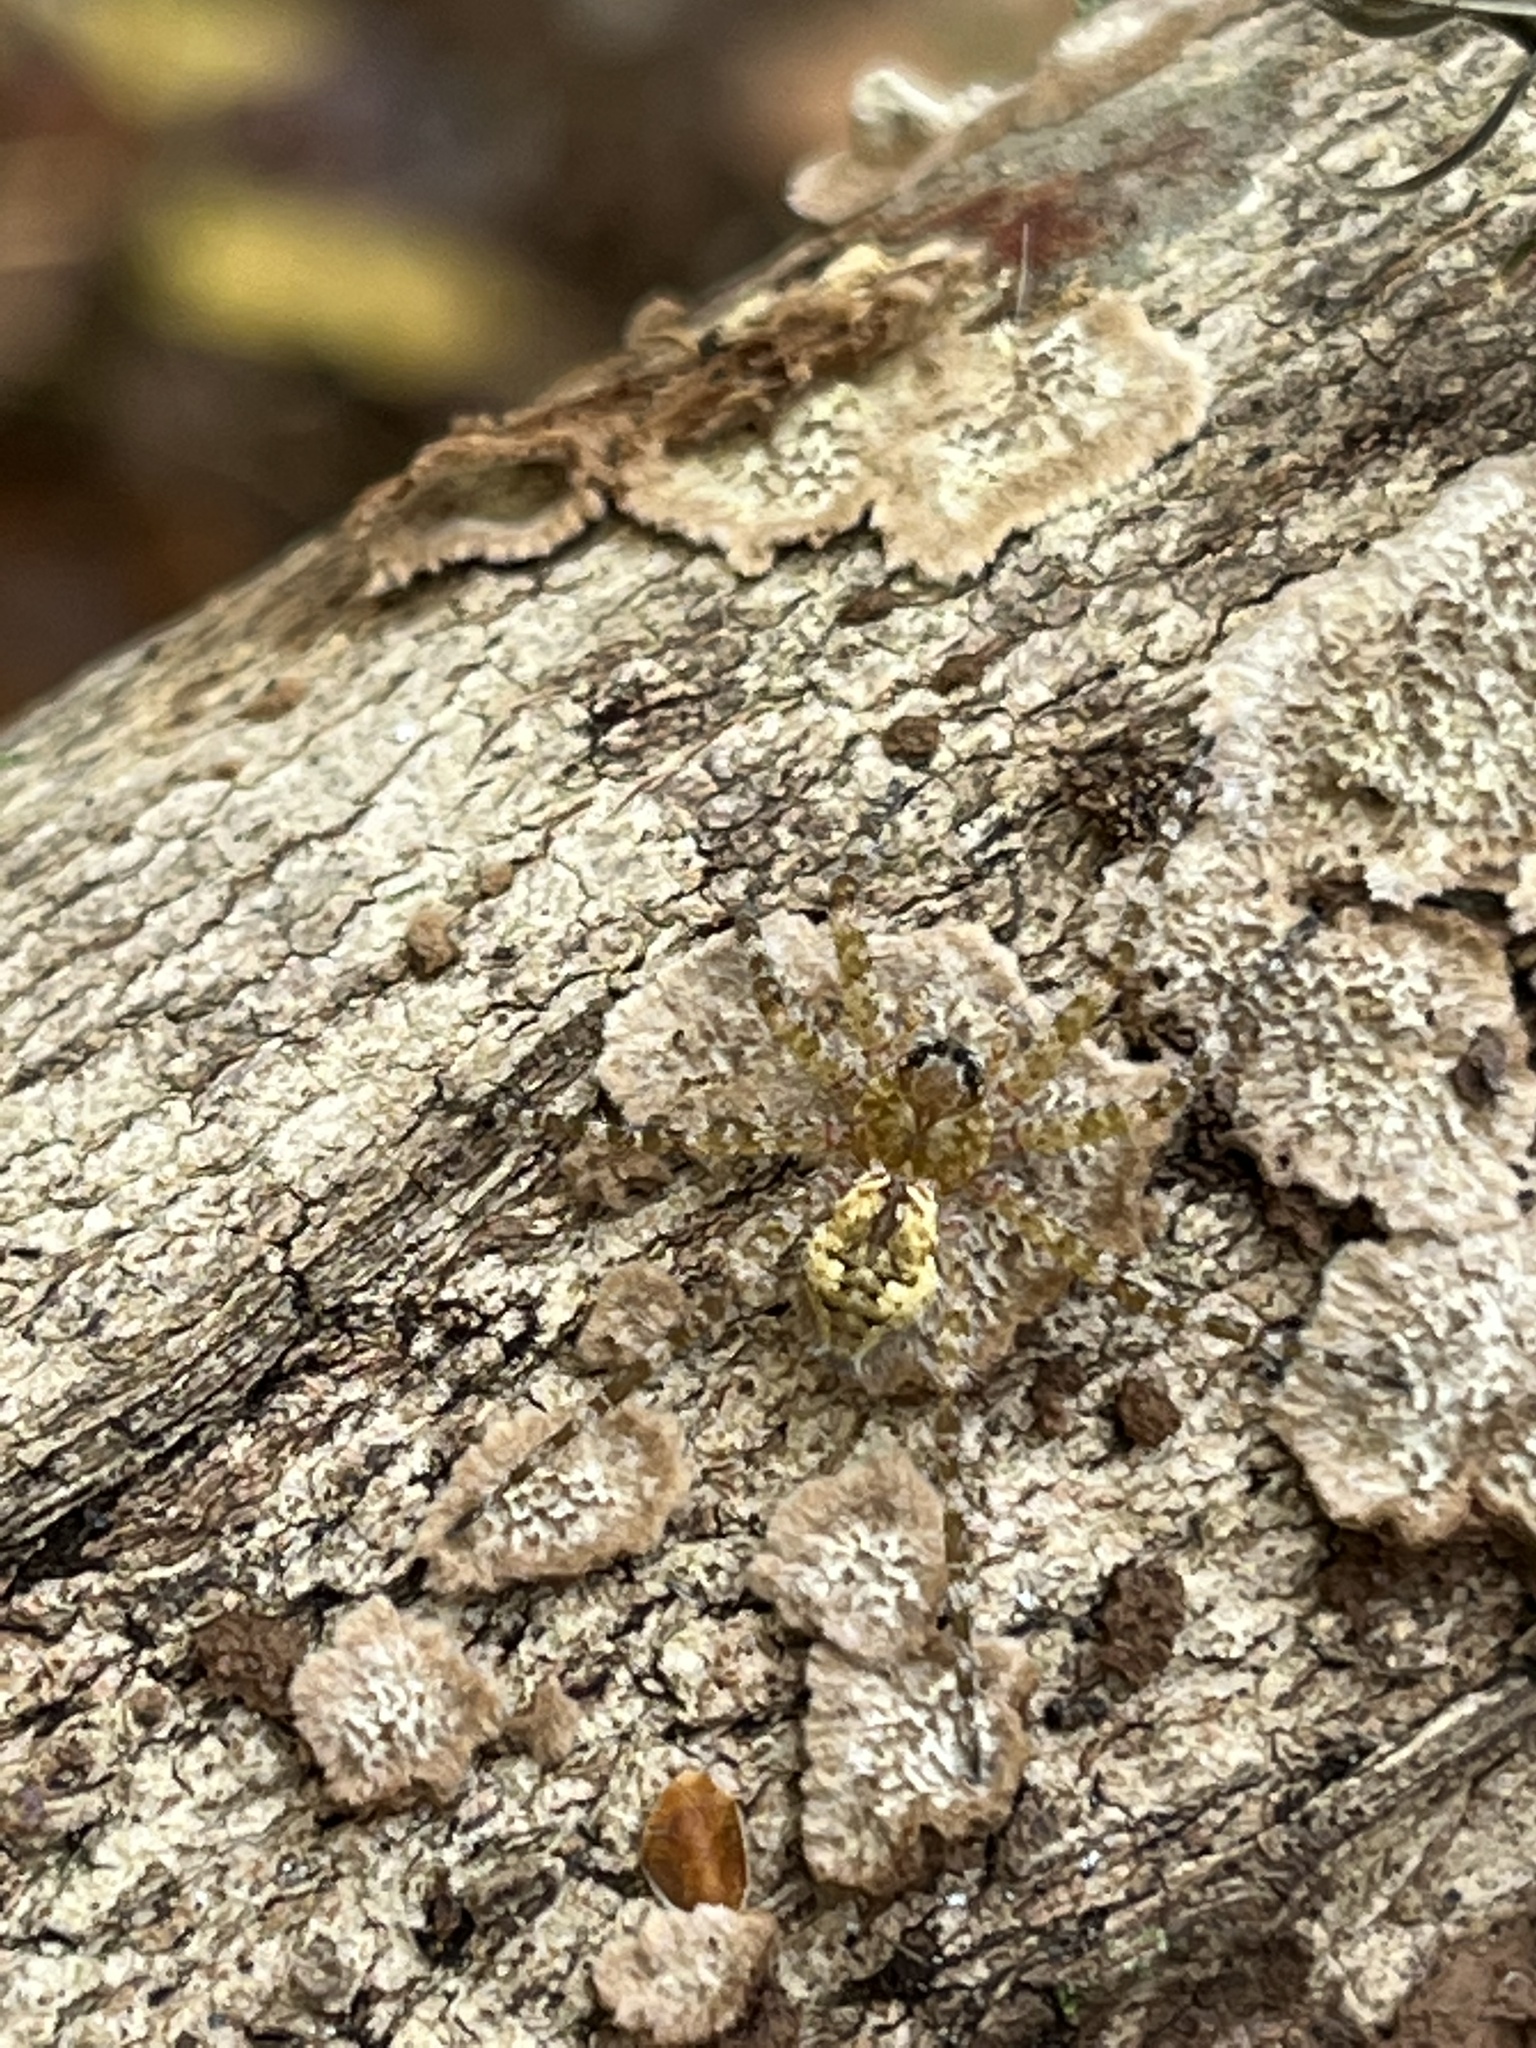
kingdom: Animalia
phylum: Arthropoda
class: Arachnida
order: Araneae
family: Pisauridae
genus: Dolomedes
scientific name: Dolomedes albineus
